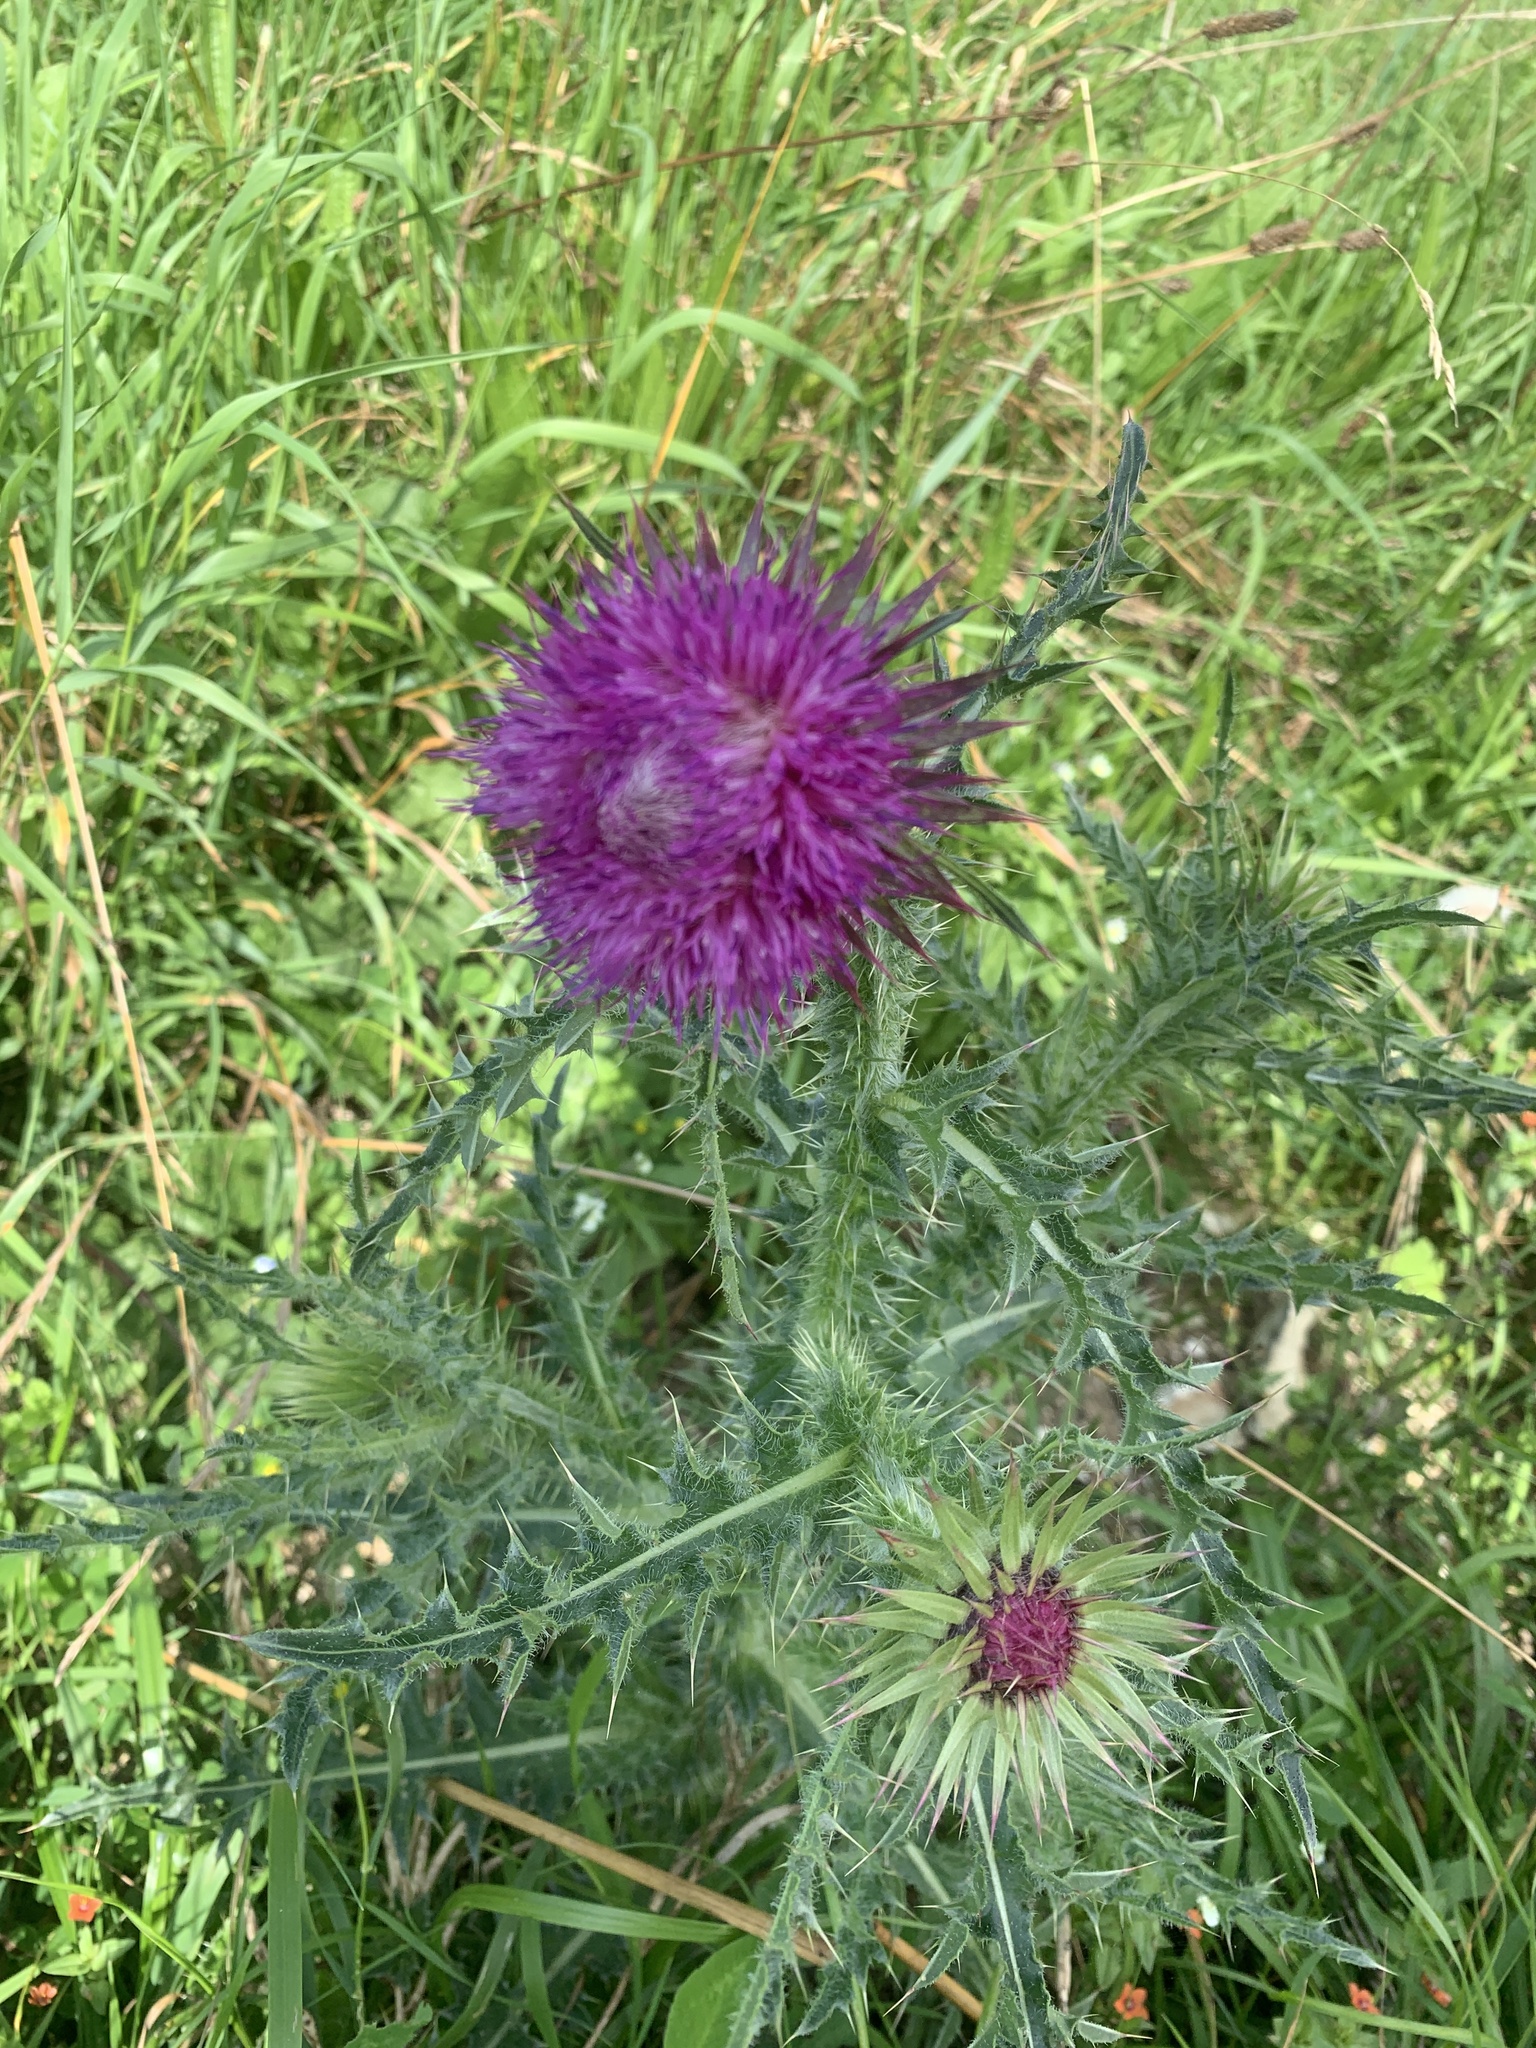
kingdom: Plantae
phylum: Tracheophyta
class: Magnoliopsida
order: Asterales
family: Asteraceae
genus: Carduus
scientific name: Carduus nutans
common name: Musk thistle
